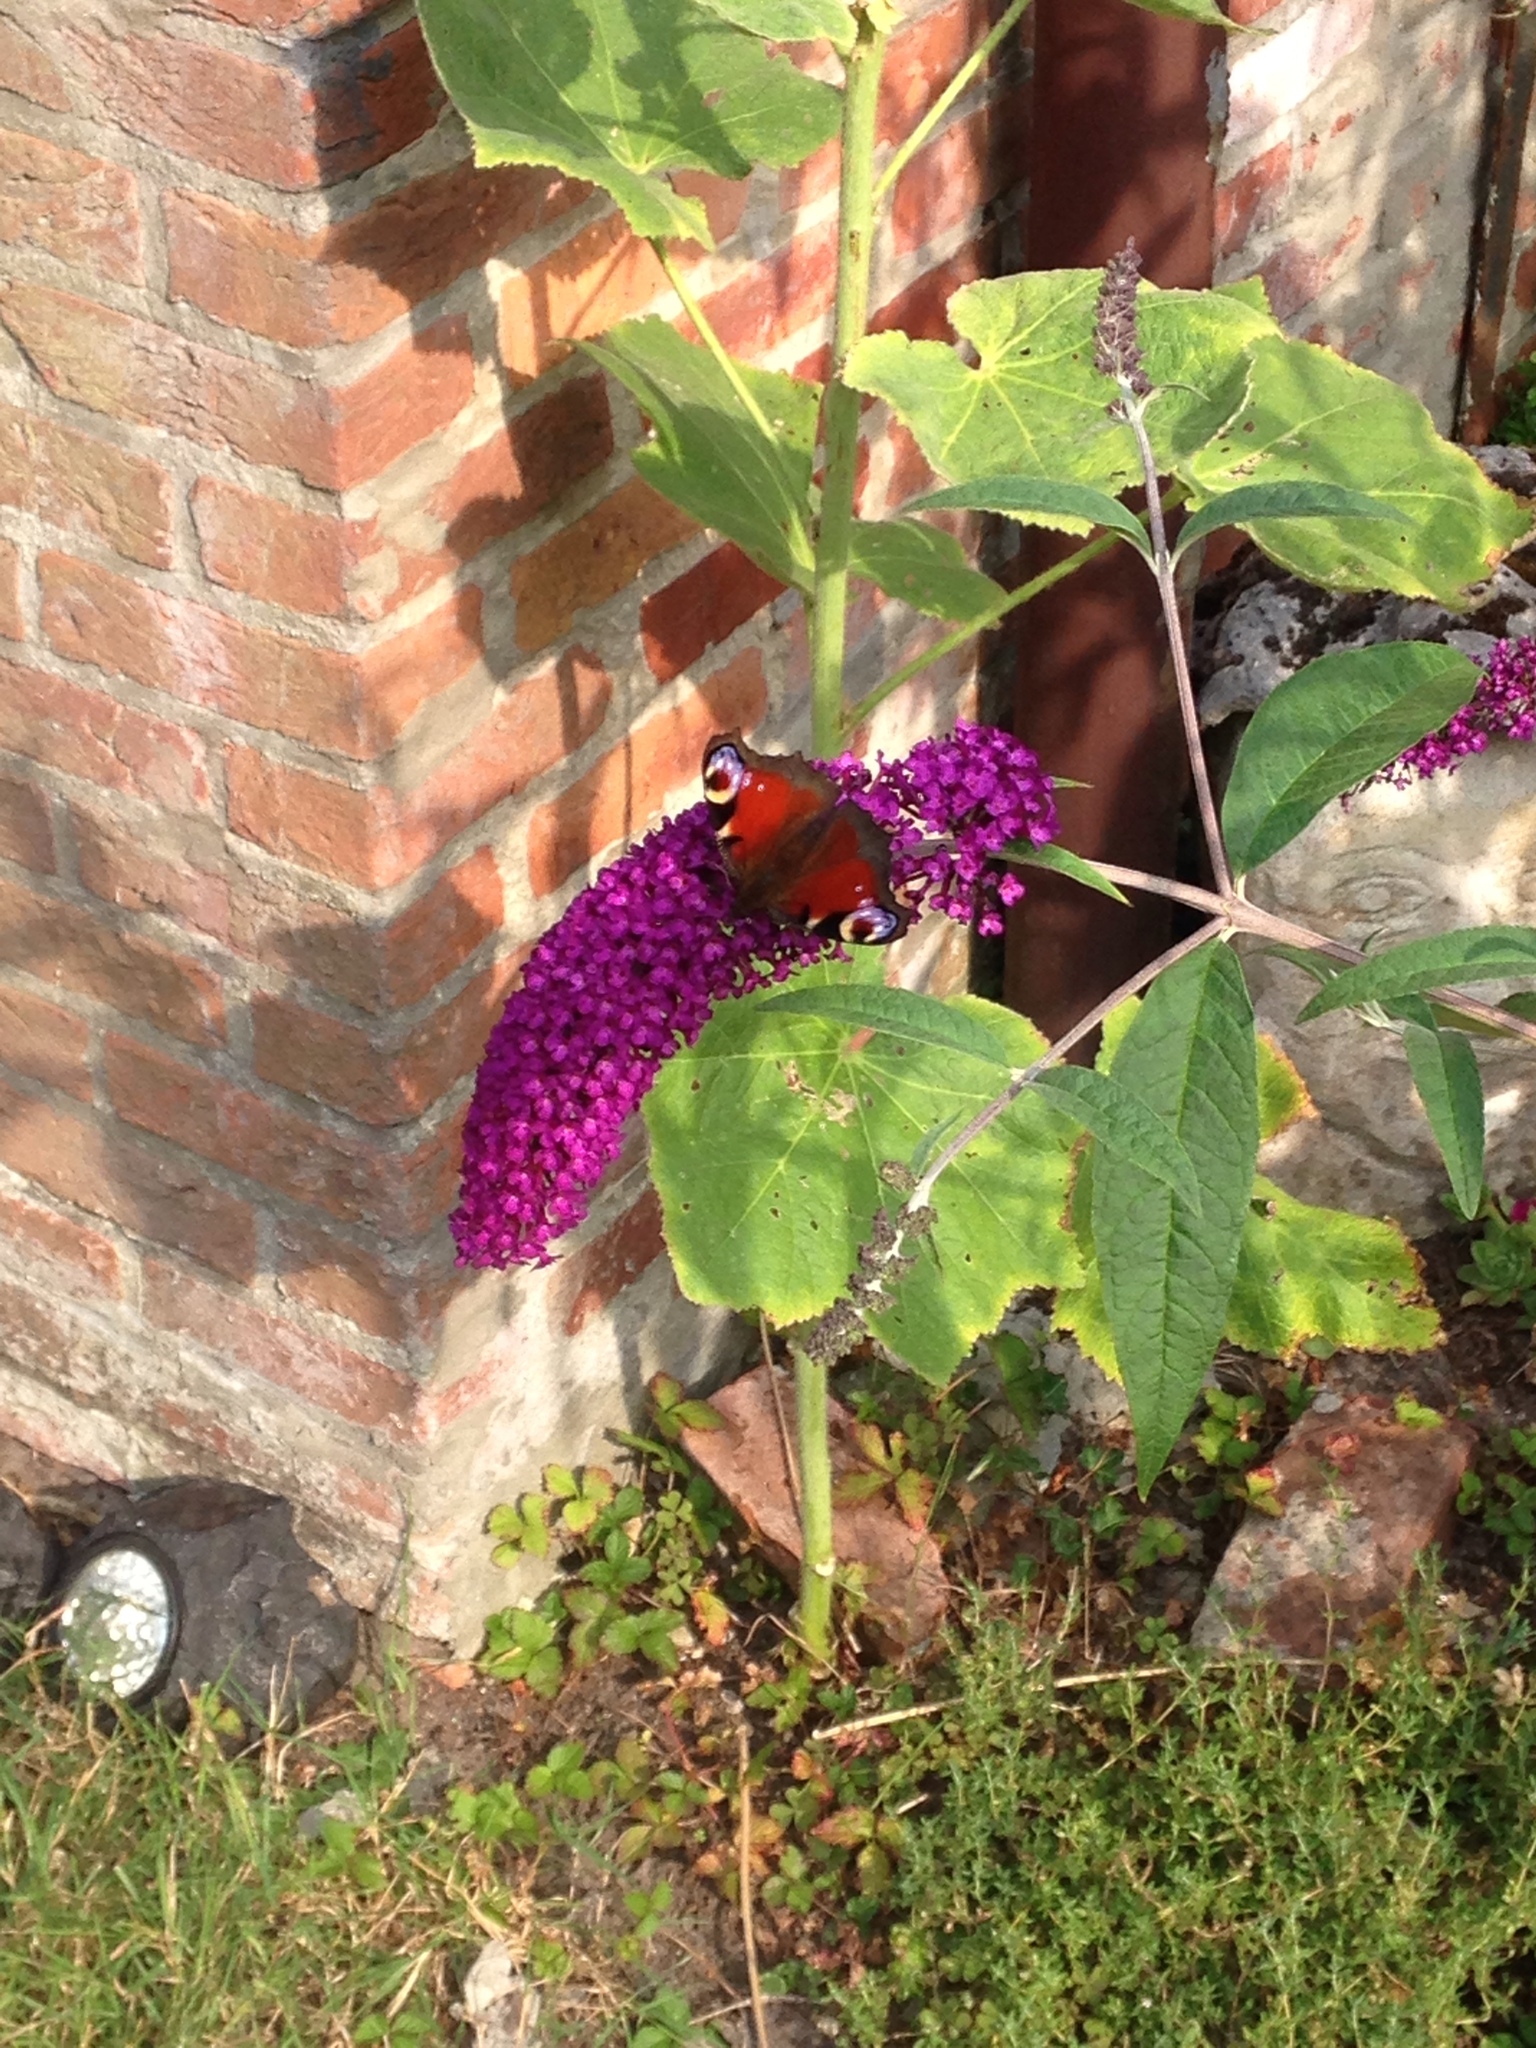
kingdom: Animalia
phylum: Arthropoda
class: Insecta
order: Lepidoptera
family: Nymphalidae
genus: Aglais
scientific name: Aglais io
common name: Peacock
